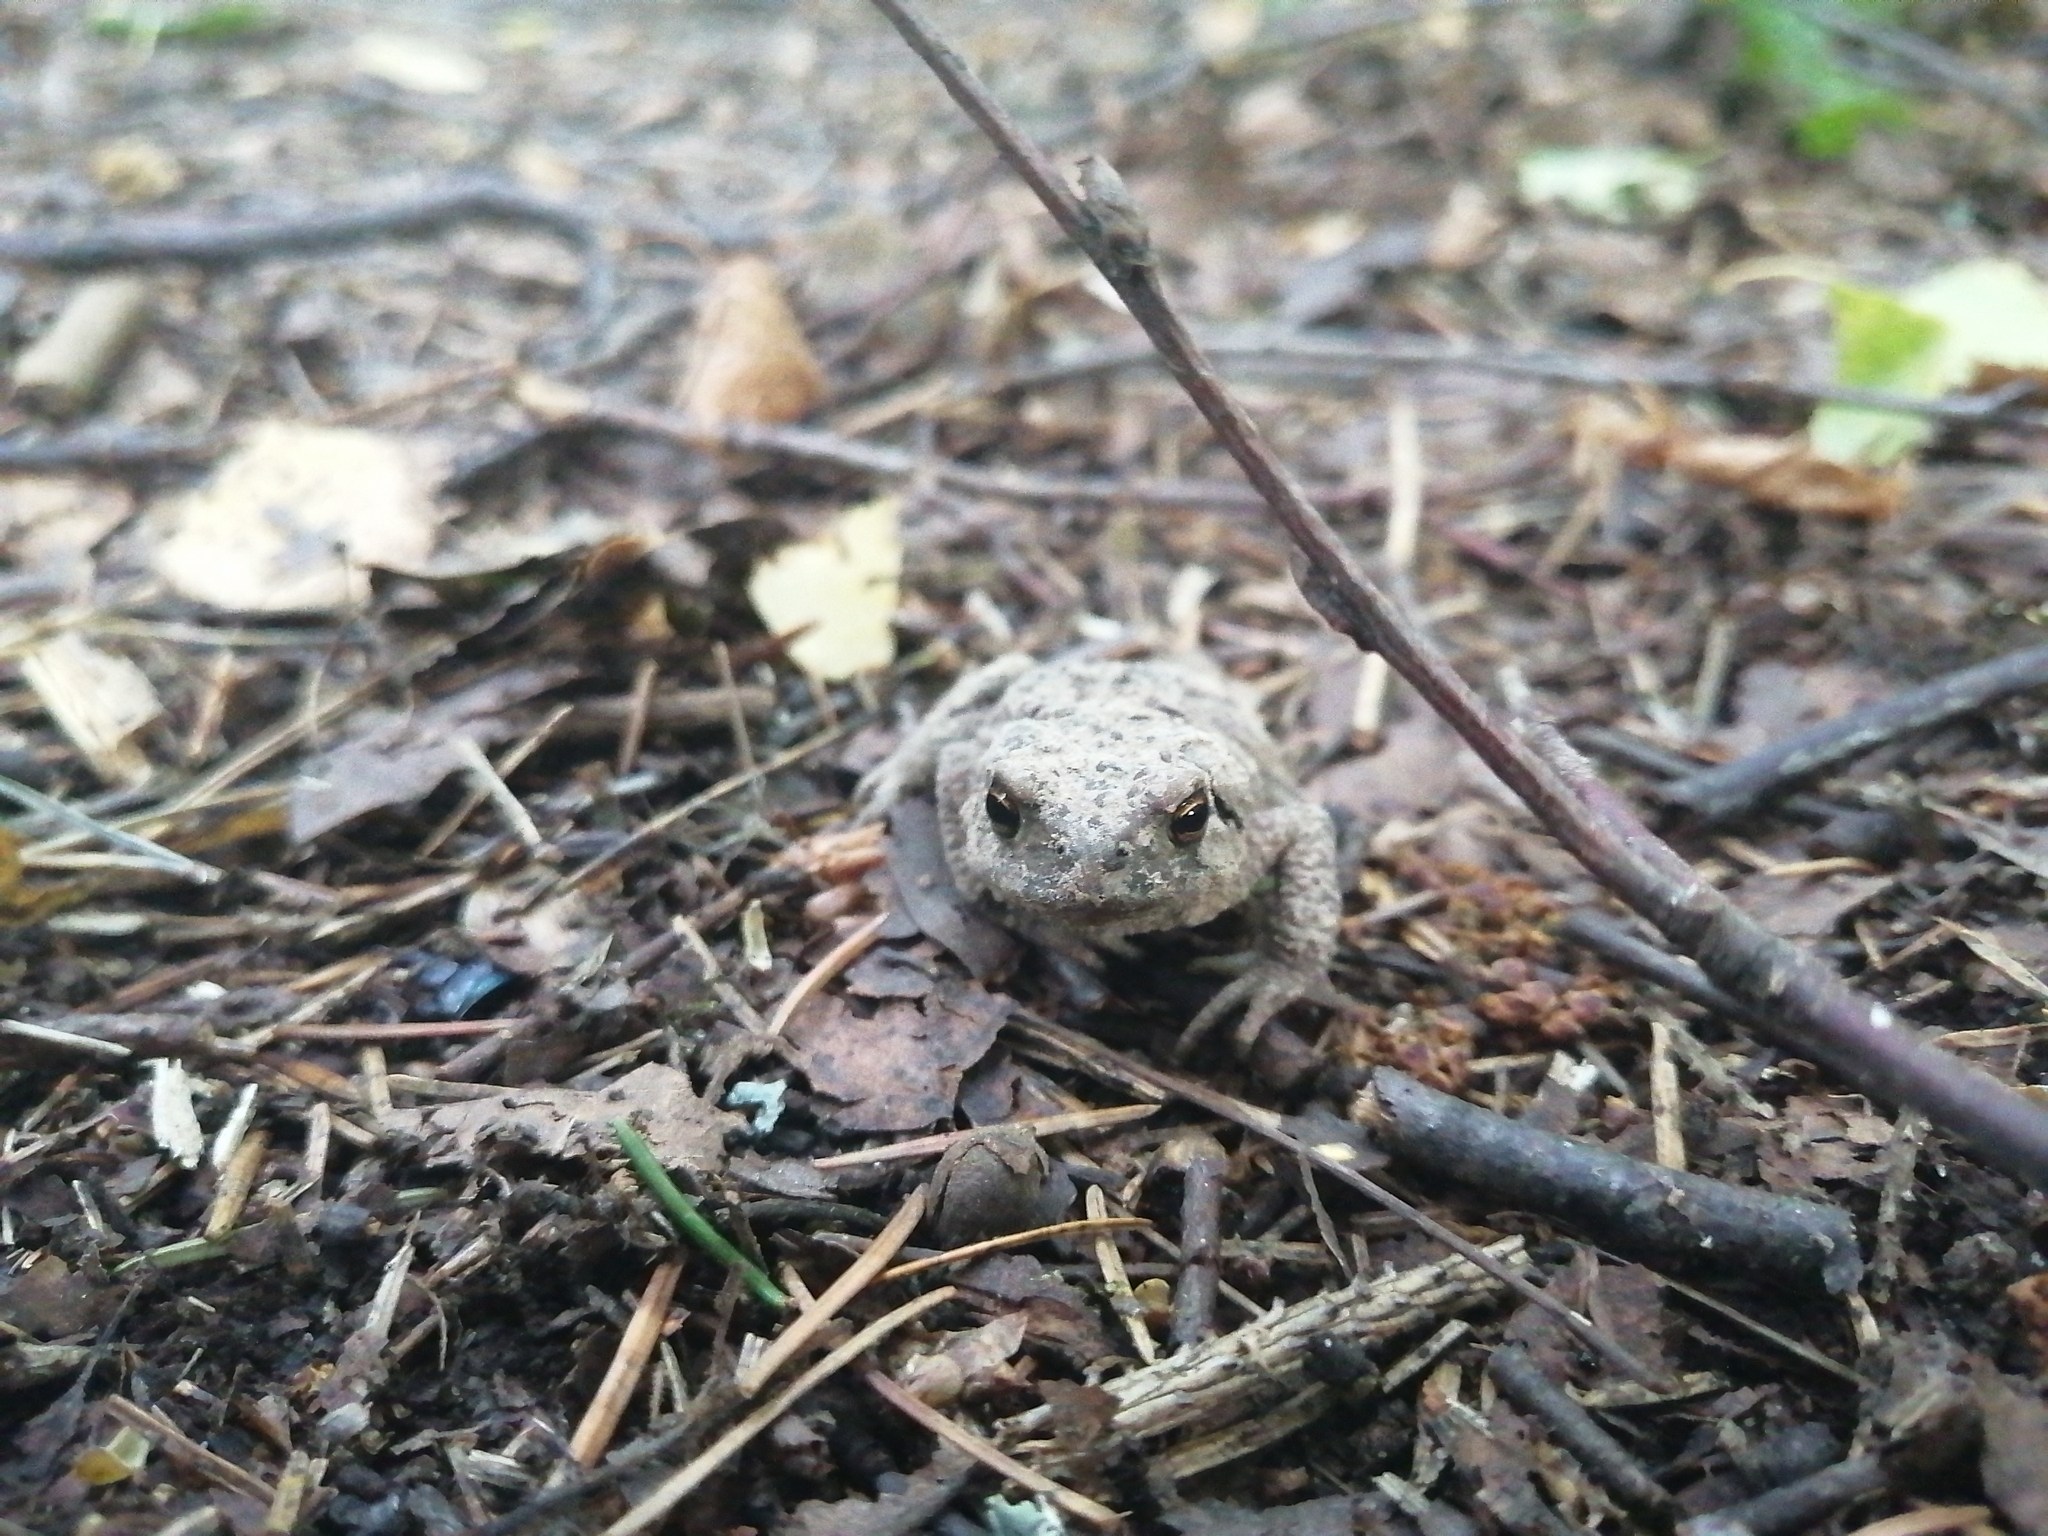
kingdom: Animalia
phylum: Chordata
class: Amphibia
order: Anura
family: Bufonidae
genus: Bufo
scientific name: Bufo bufo
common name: Common toad
